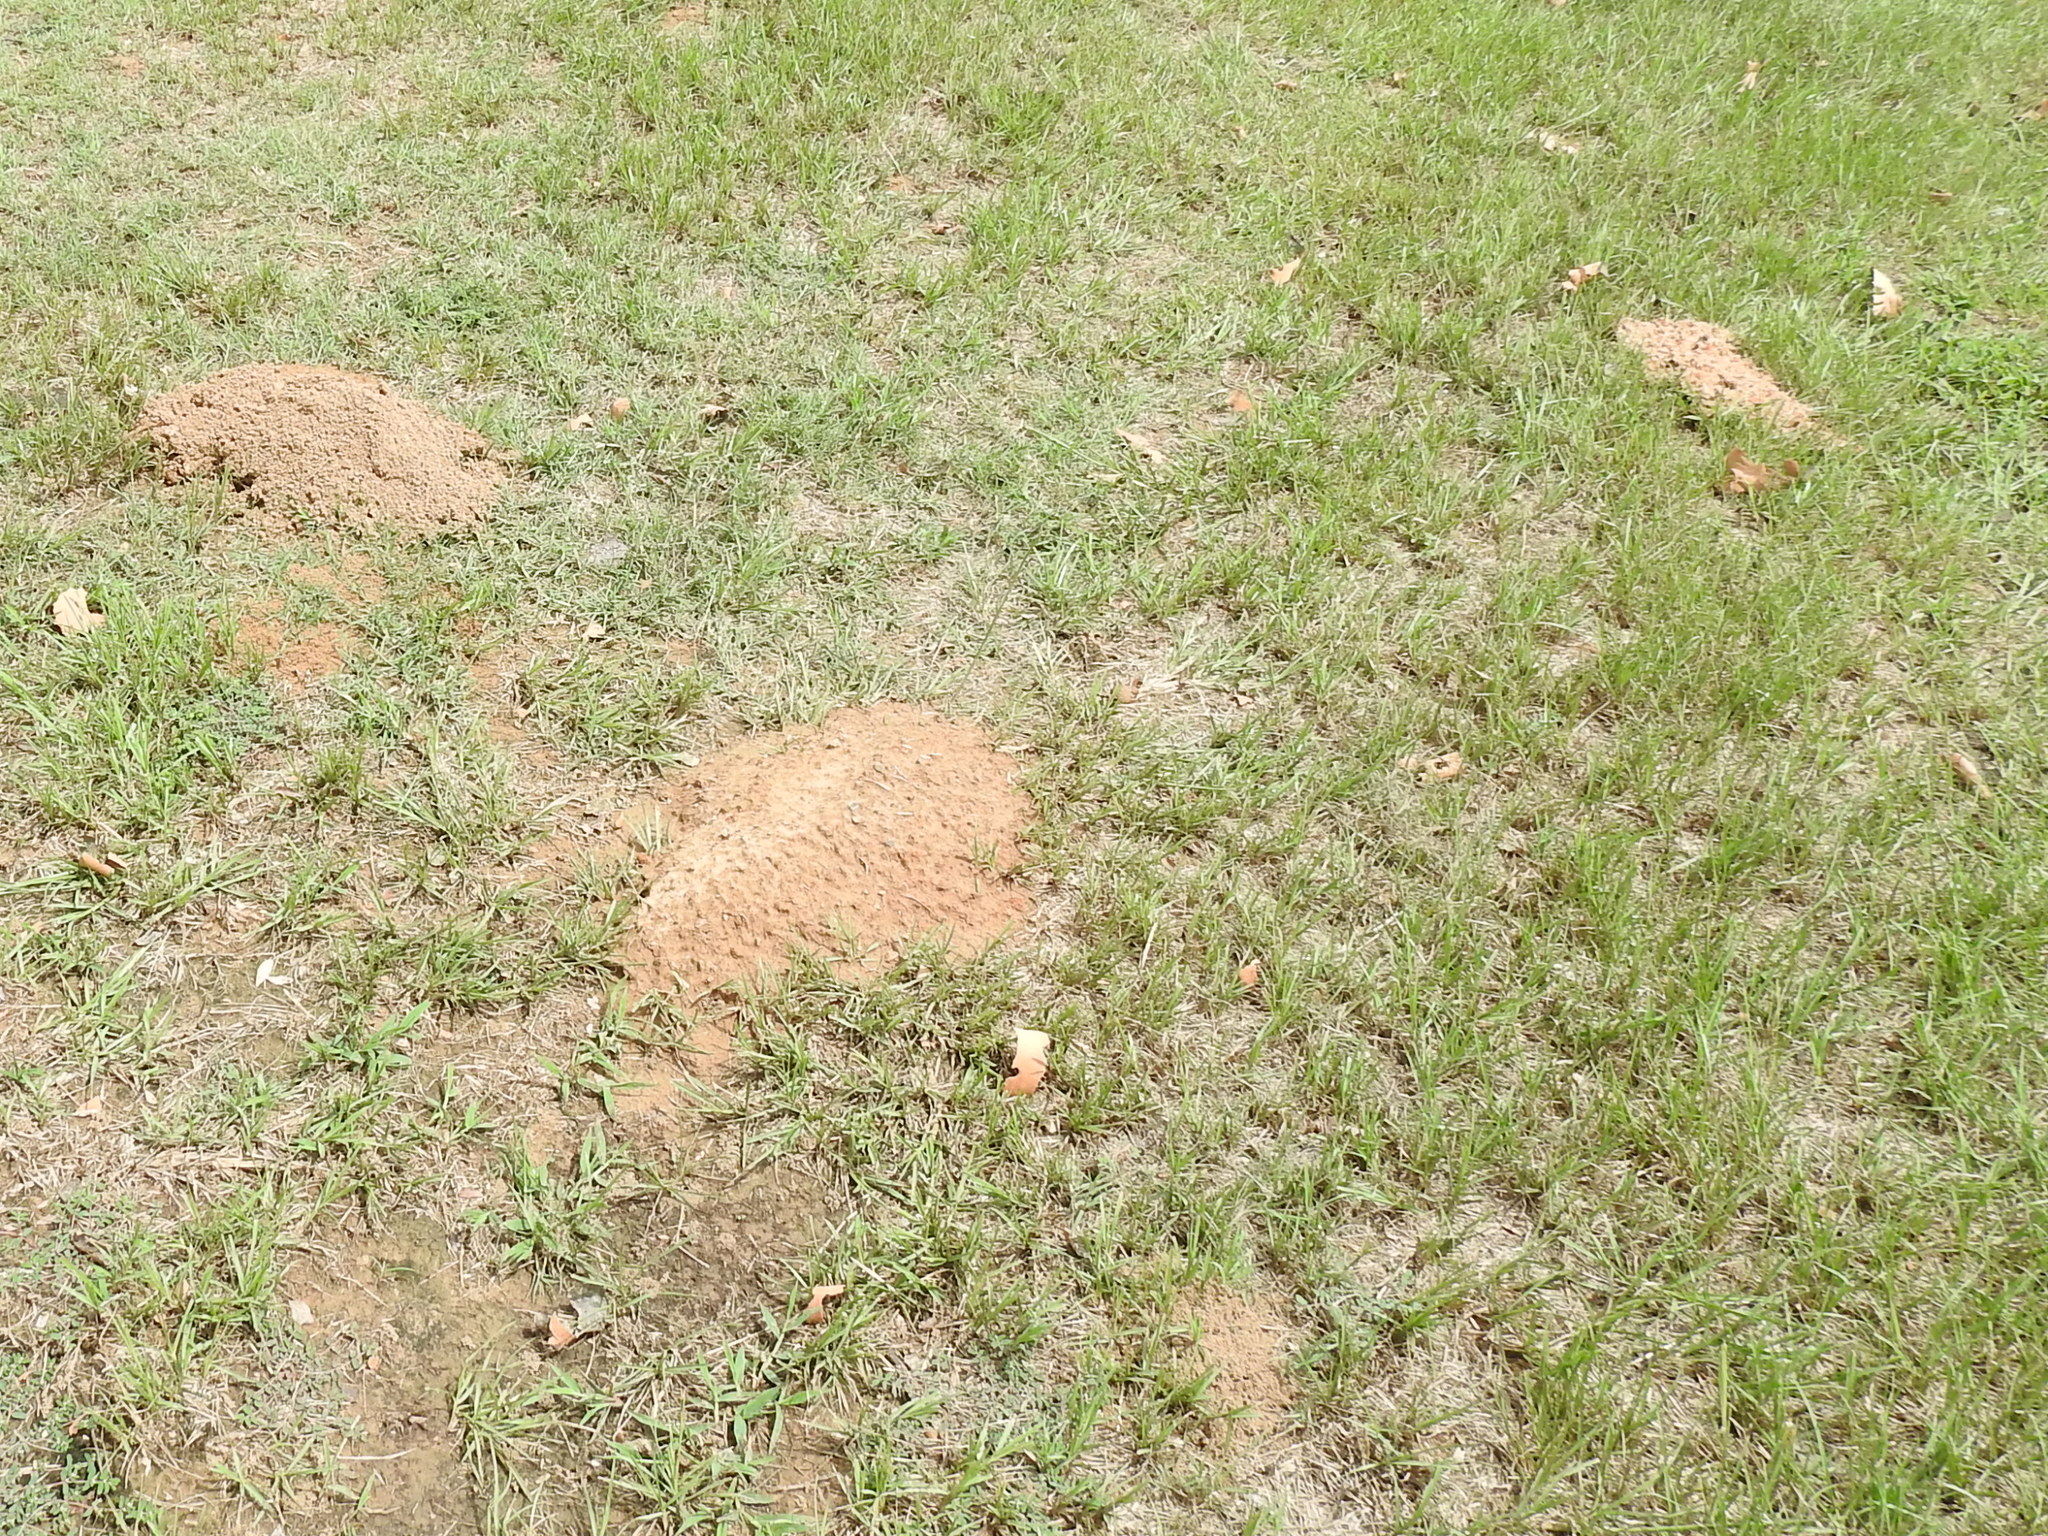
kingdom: Animalia
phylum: Chordata
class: Mammalia
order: Rodentia
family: Geomyidae
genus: Geomys
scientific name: Geomys breviceps
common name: Baird's pocket gopher
